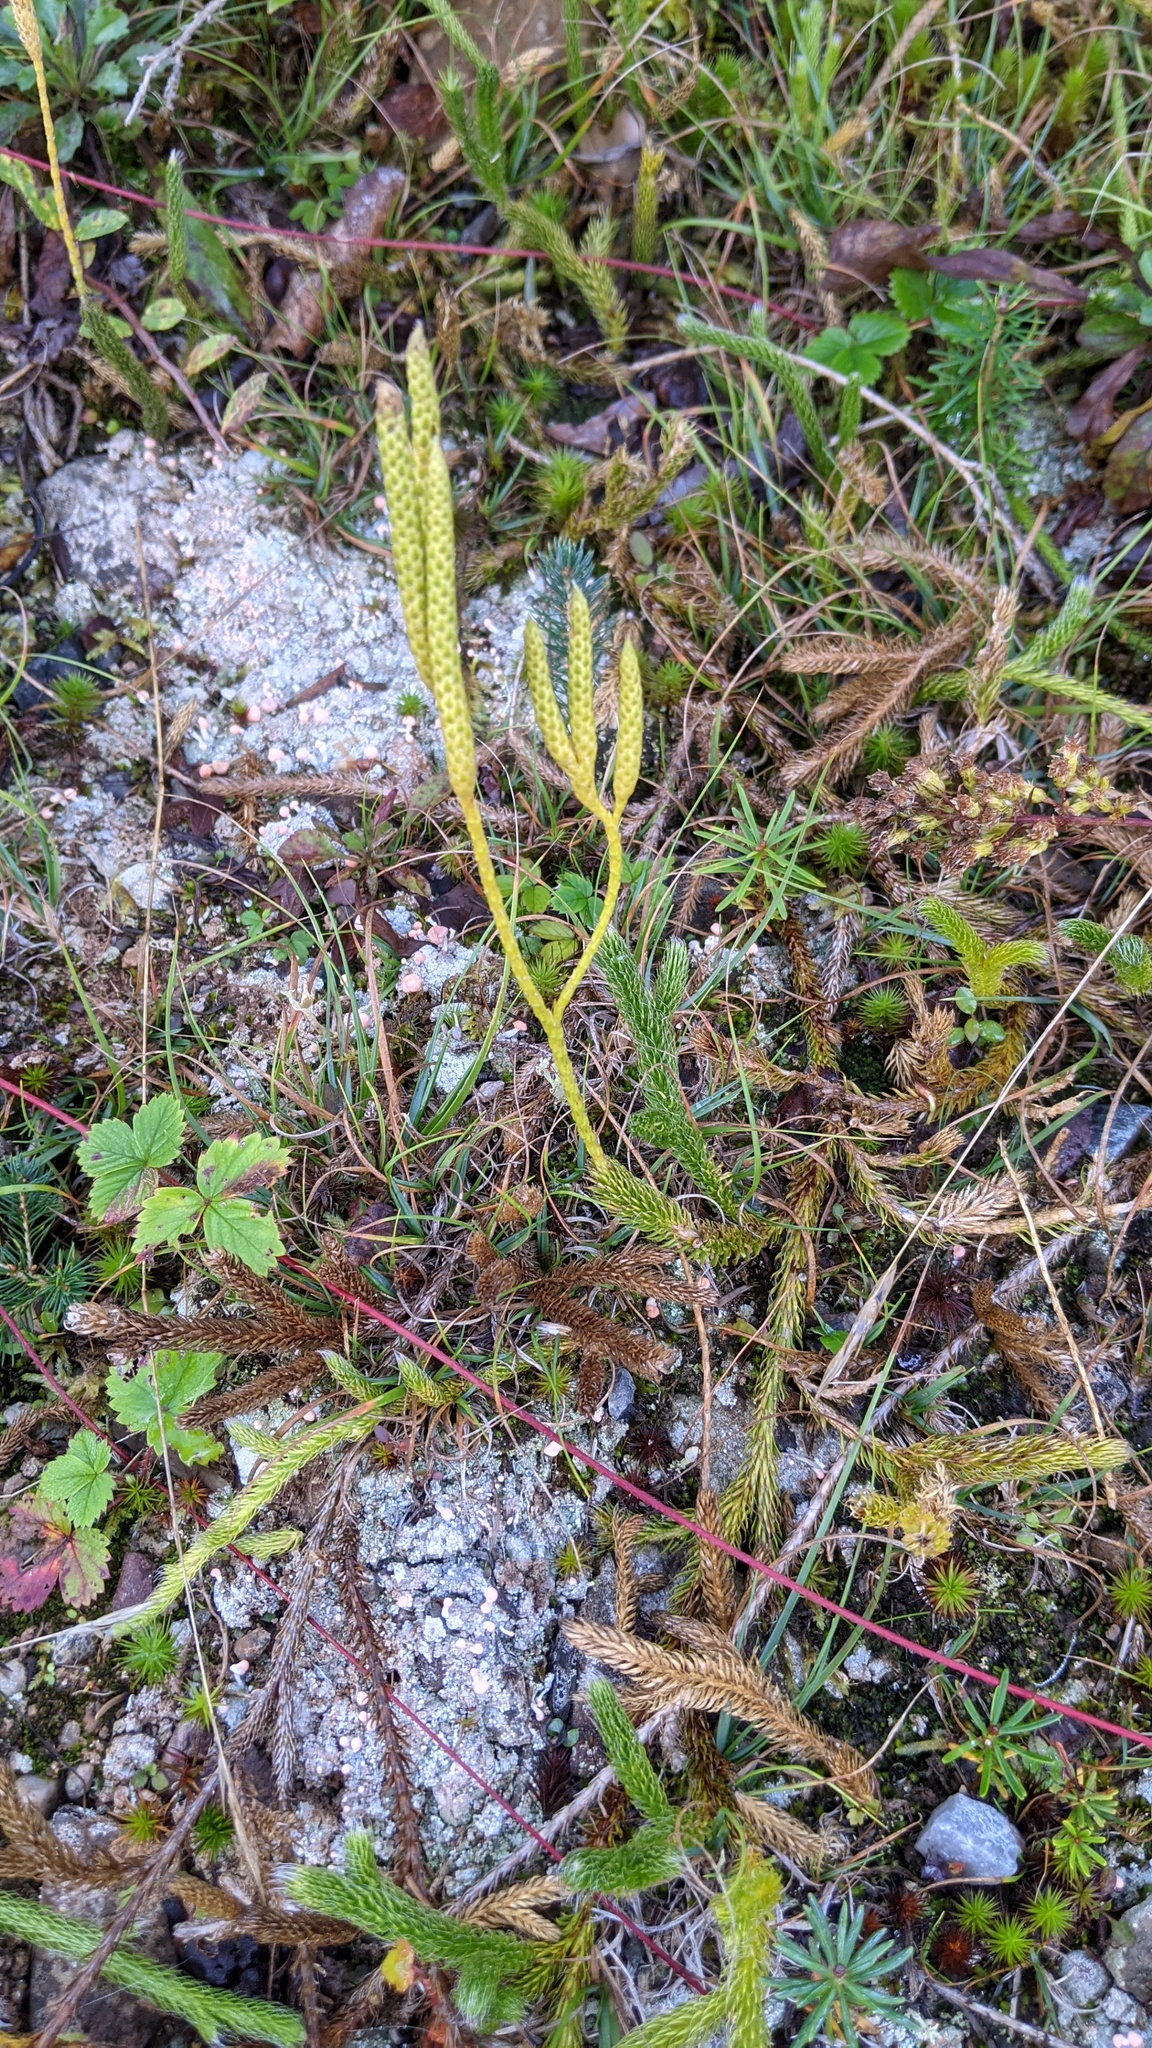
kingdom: Plantae
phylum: Tracheophyta
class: Lycopodiopsida
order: Lycopodiales
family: Lycopodiaceae
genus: Lycopodium
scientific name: Lycopodium clavatum
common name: Stag's-horn clubmoss
